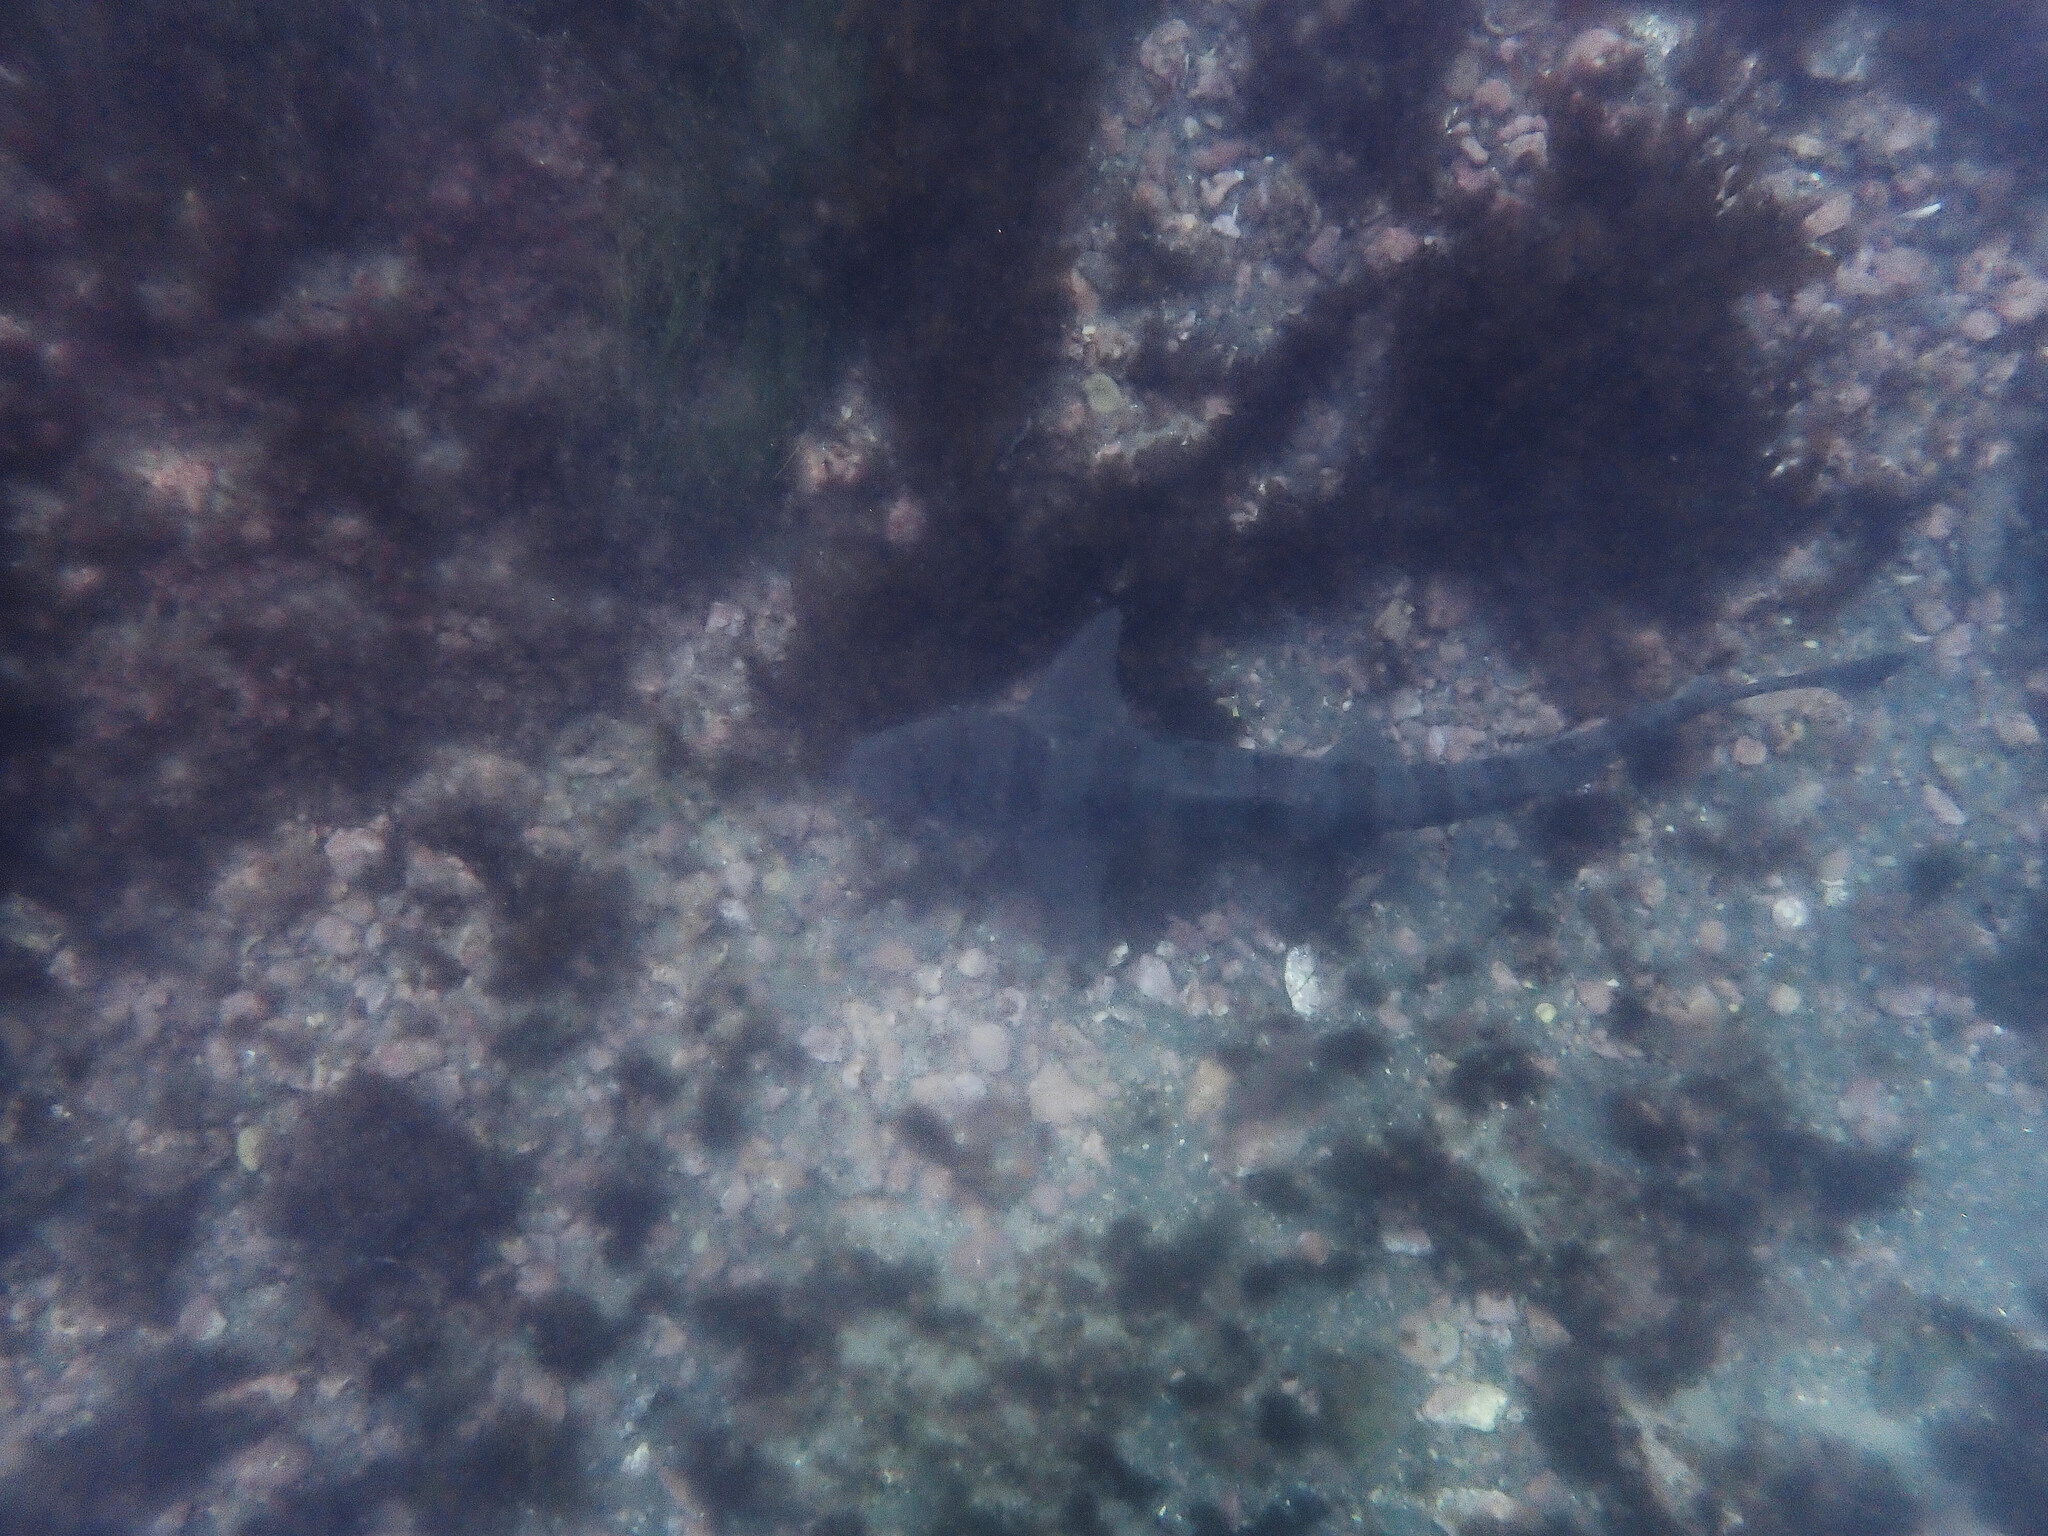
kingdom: Animalia
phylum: Chordata
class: Elasmobranchii
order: Carcharhiniformes
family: Triakidae
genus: Triakis
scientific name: Triakis semifasciata
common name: Leopard shark
